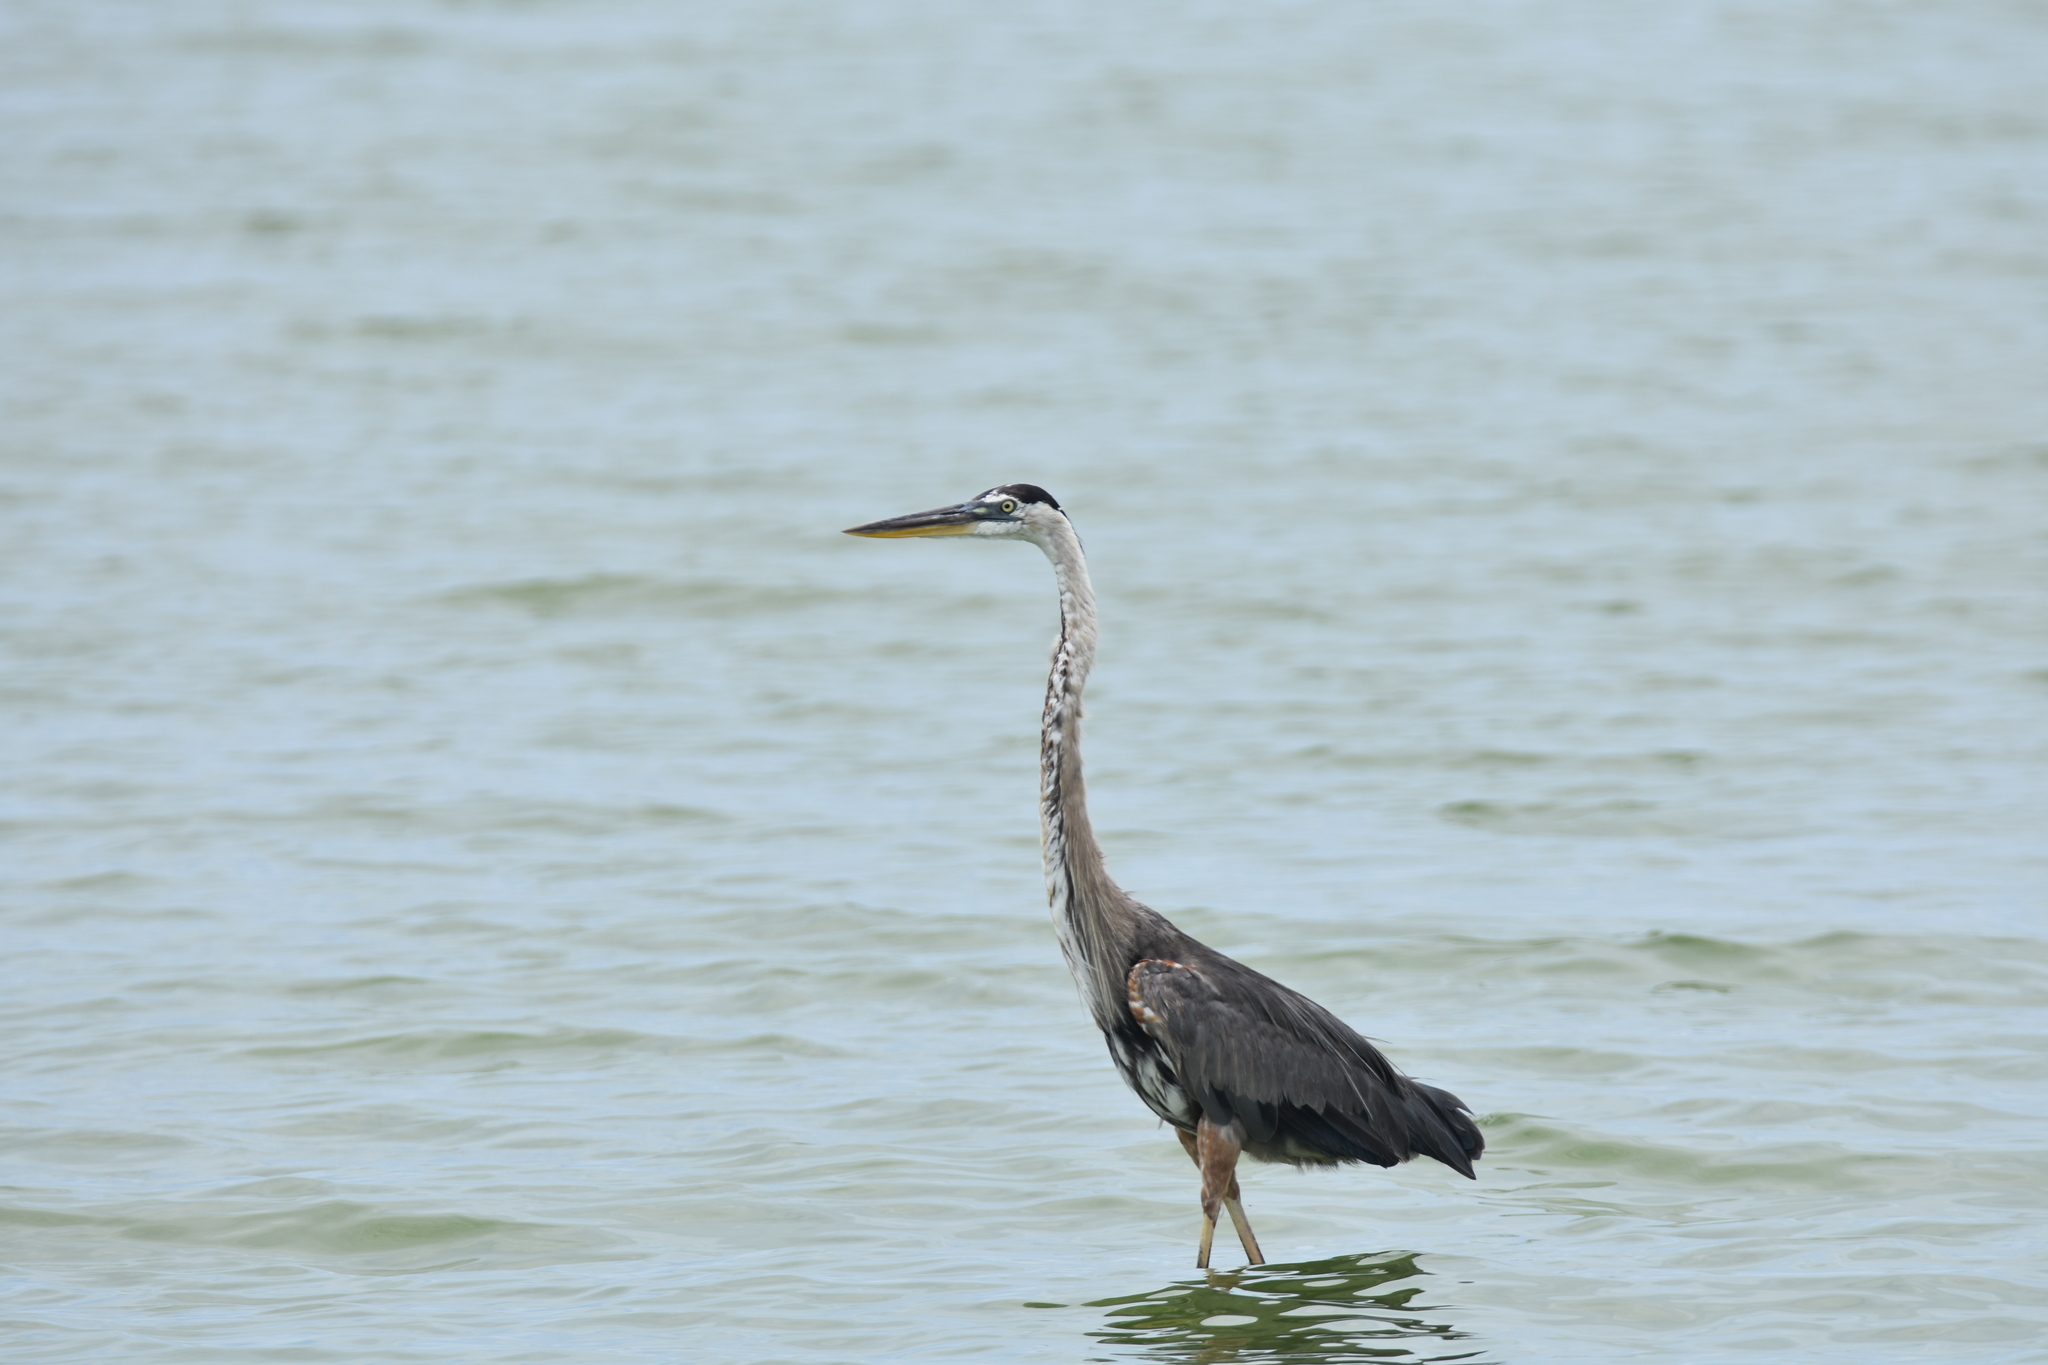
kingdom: Animalia
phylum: Chordata
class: Aves
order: Pelecaniformes
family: Ardeidae
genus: Ardea
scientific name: Ardea herodias
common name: Great blue heron
